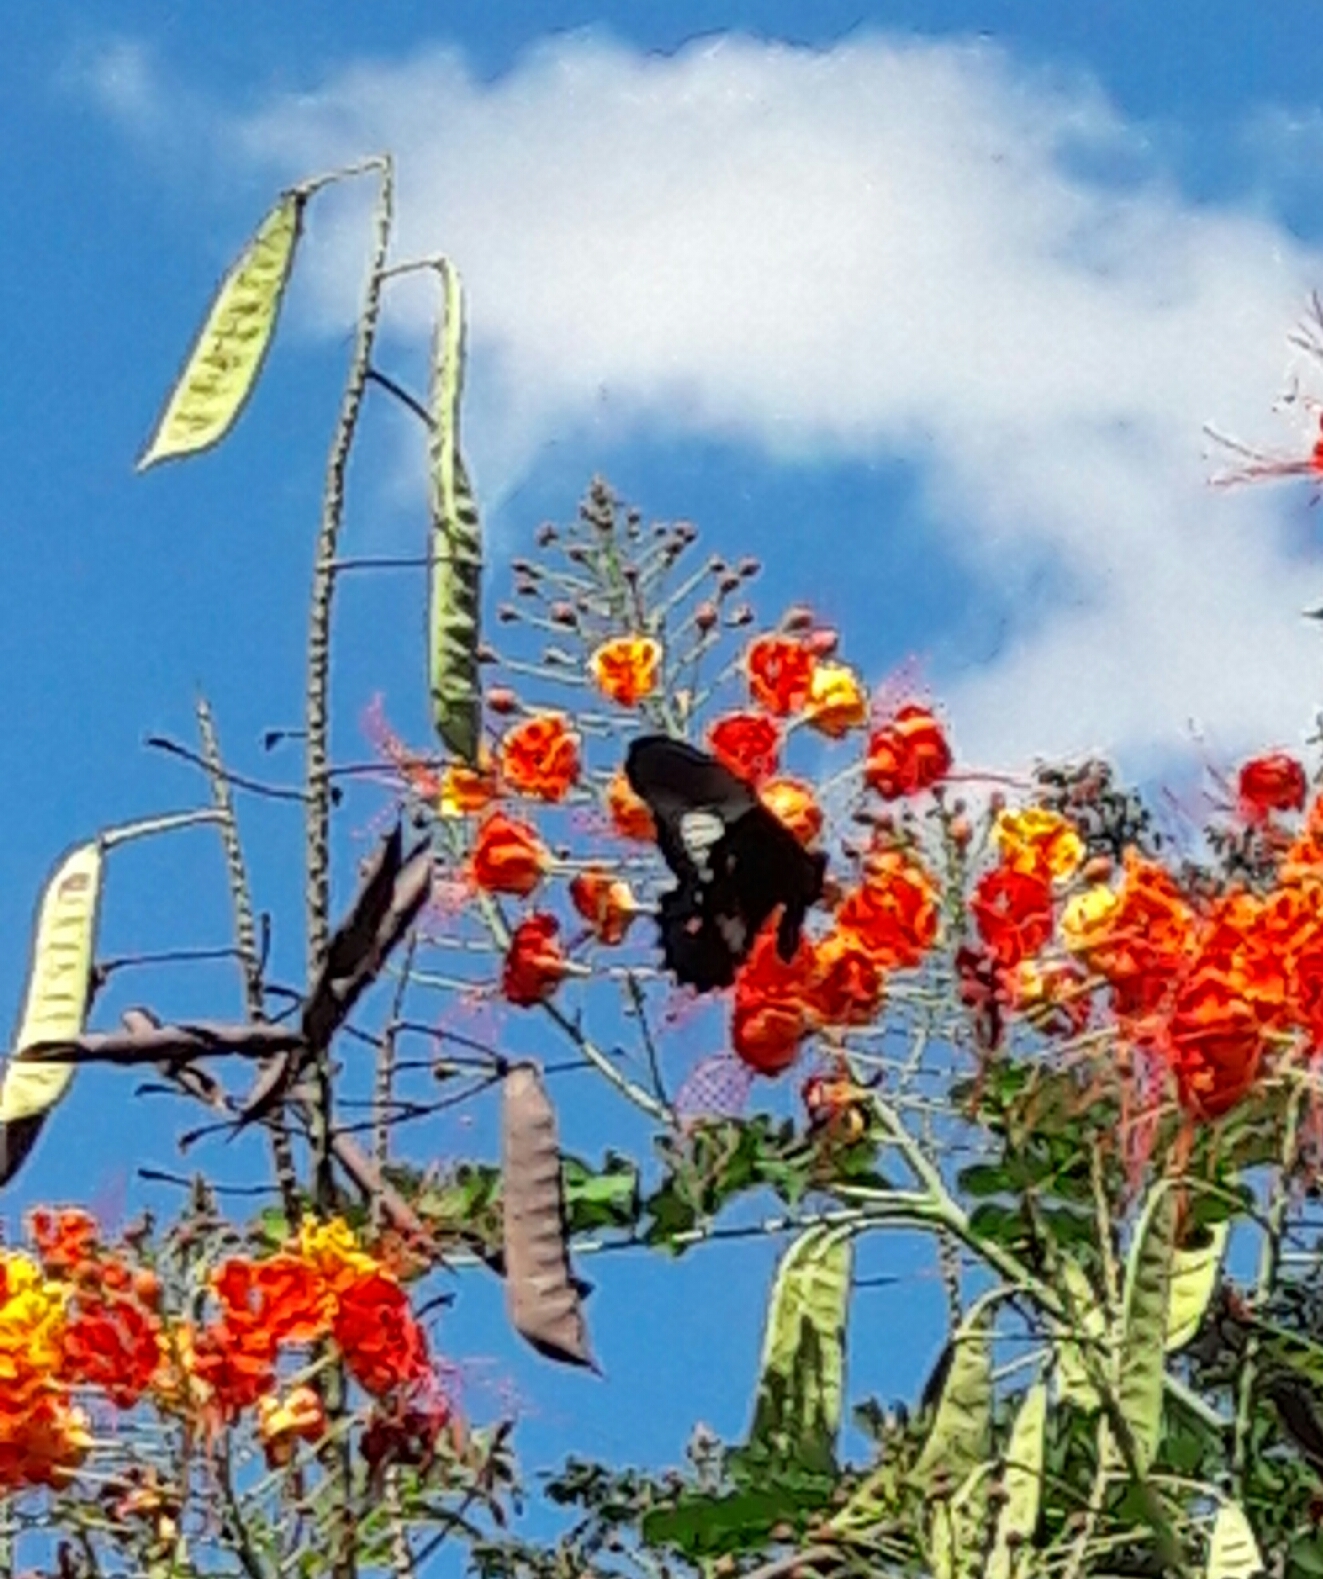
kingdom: Animalia
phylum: Arthropoda
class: Insecta
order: Lepidoptera
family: Papilionidae
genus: Papilio
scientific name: Papilio anchisiades
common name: Idaes swallowtail
